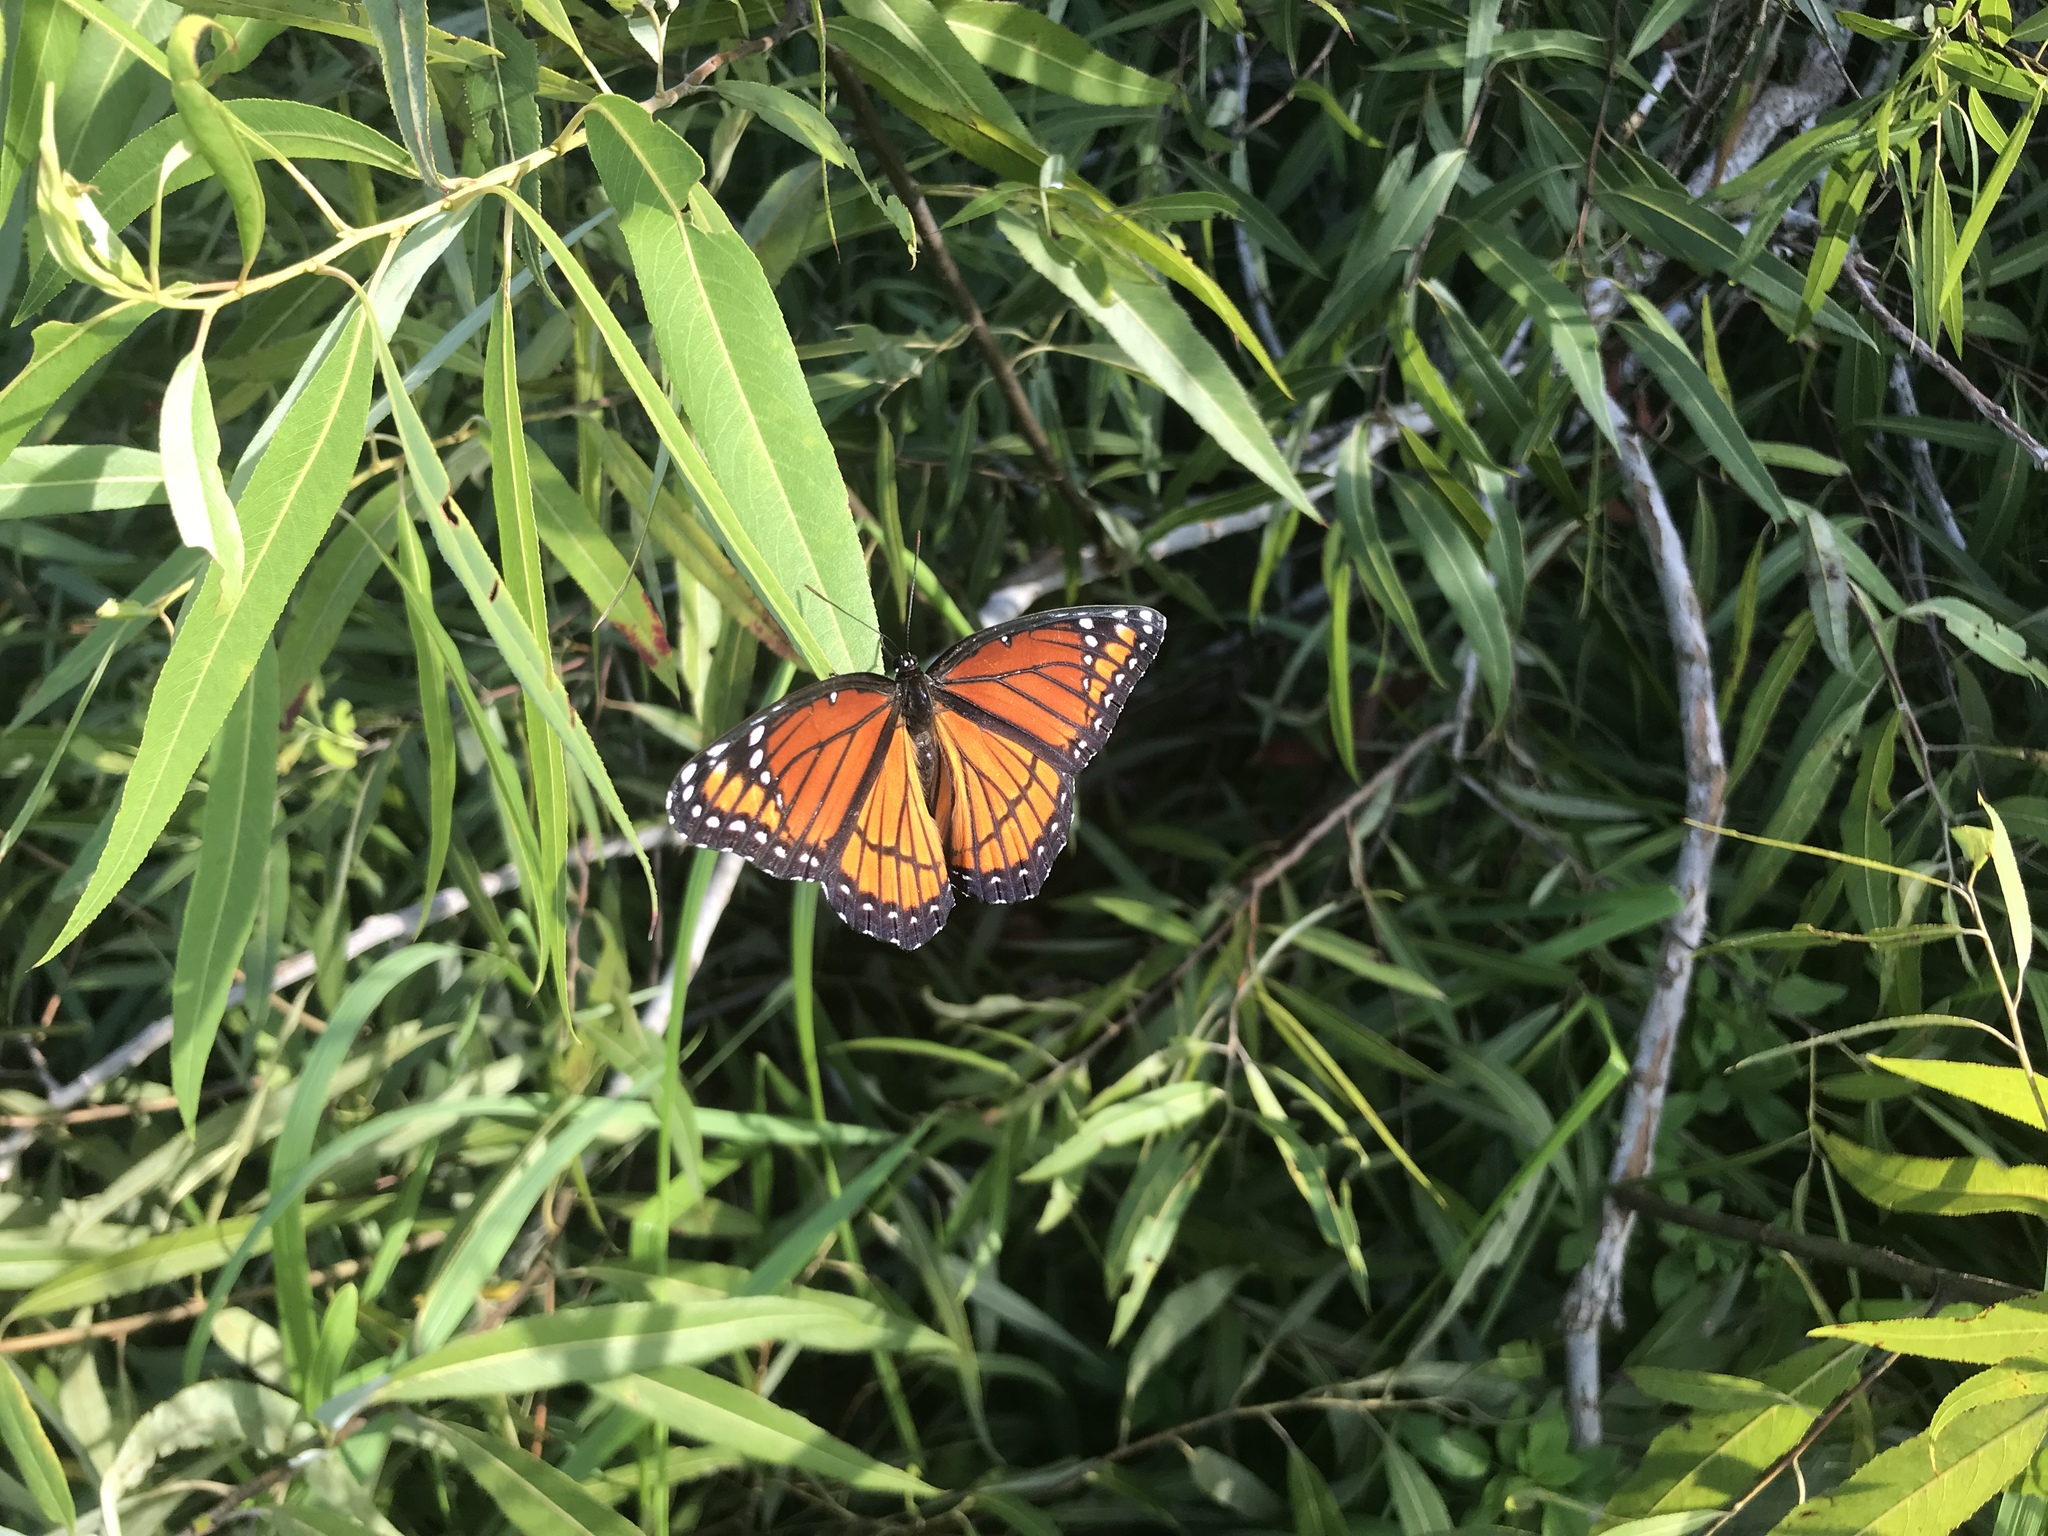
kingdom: Animalia
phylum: Arthropoda
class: Insecta
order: Lepidoptera
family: Nymphalidae
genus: Limenitis
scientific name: Limenitis archippus
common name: Viceroy
